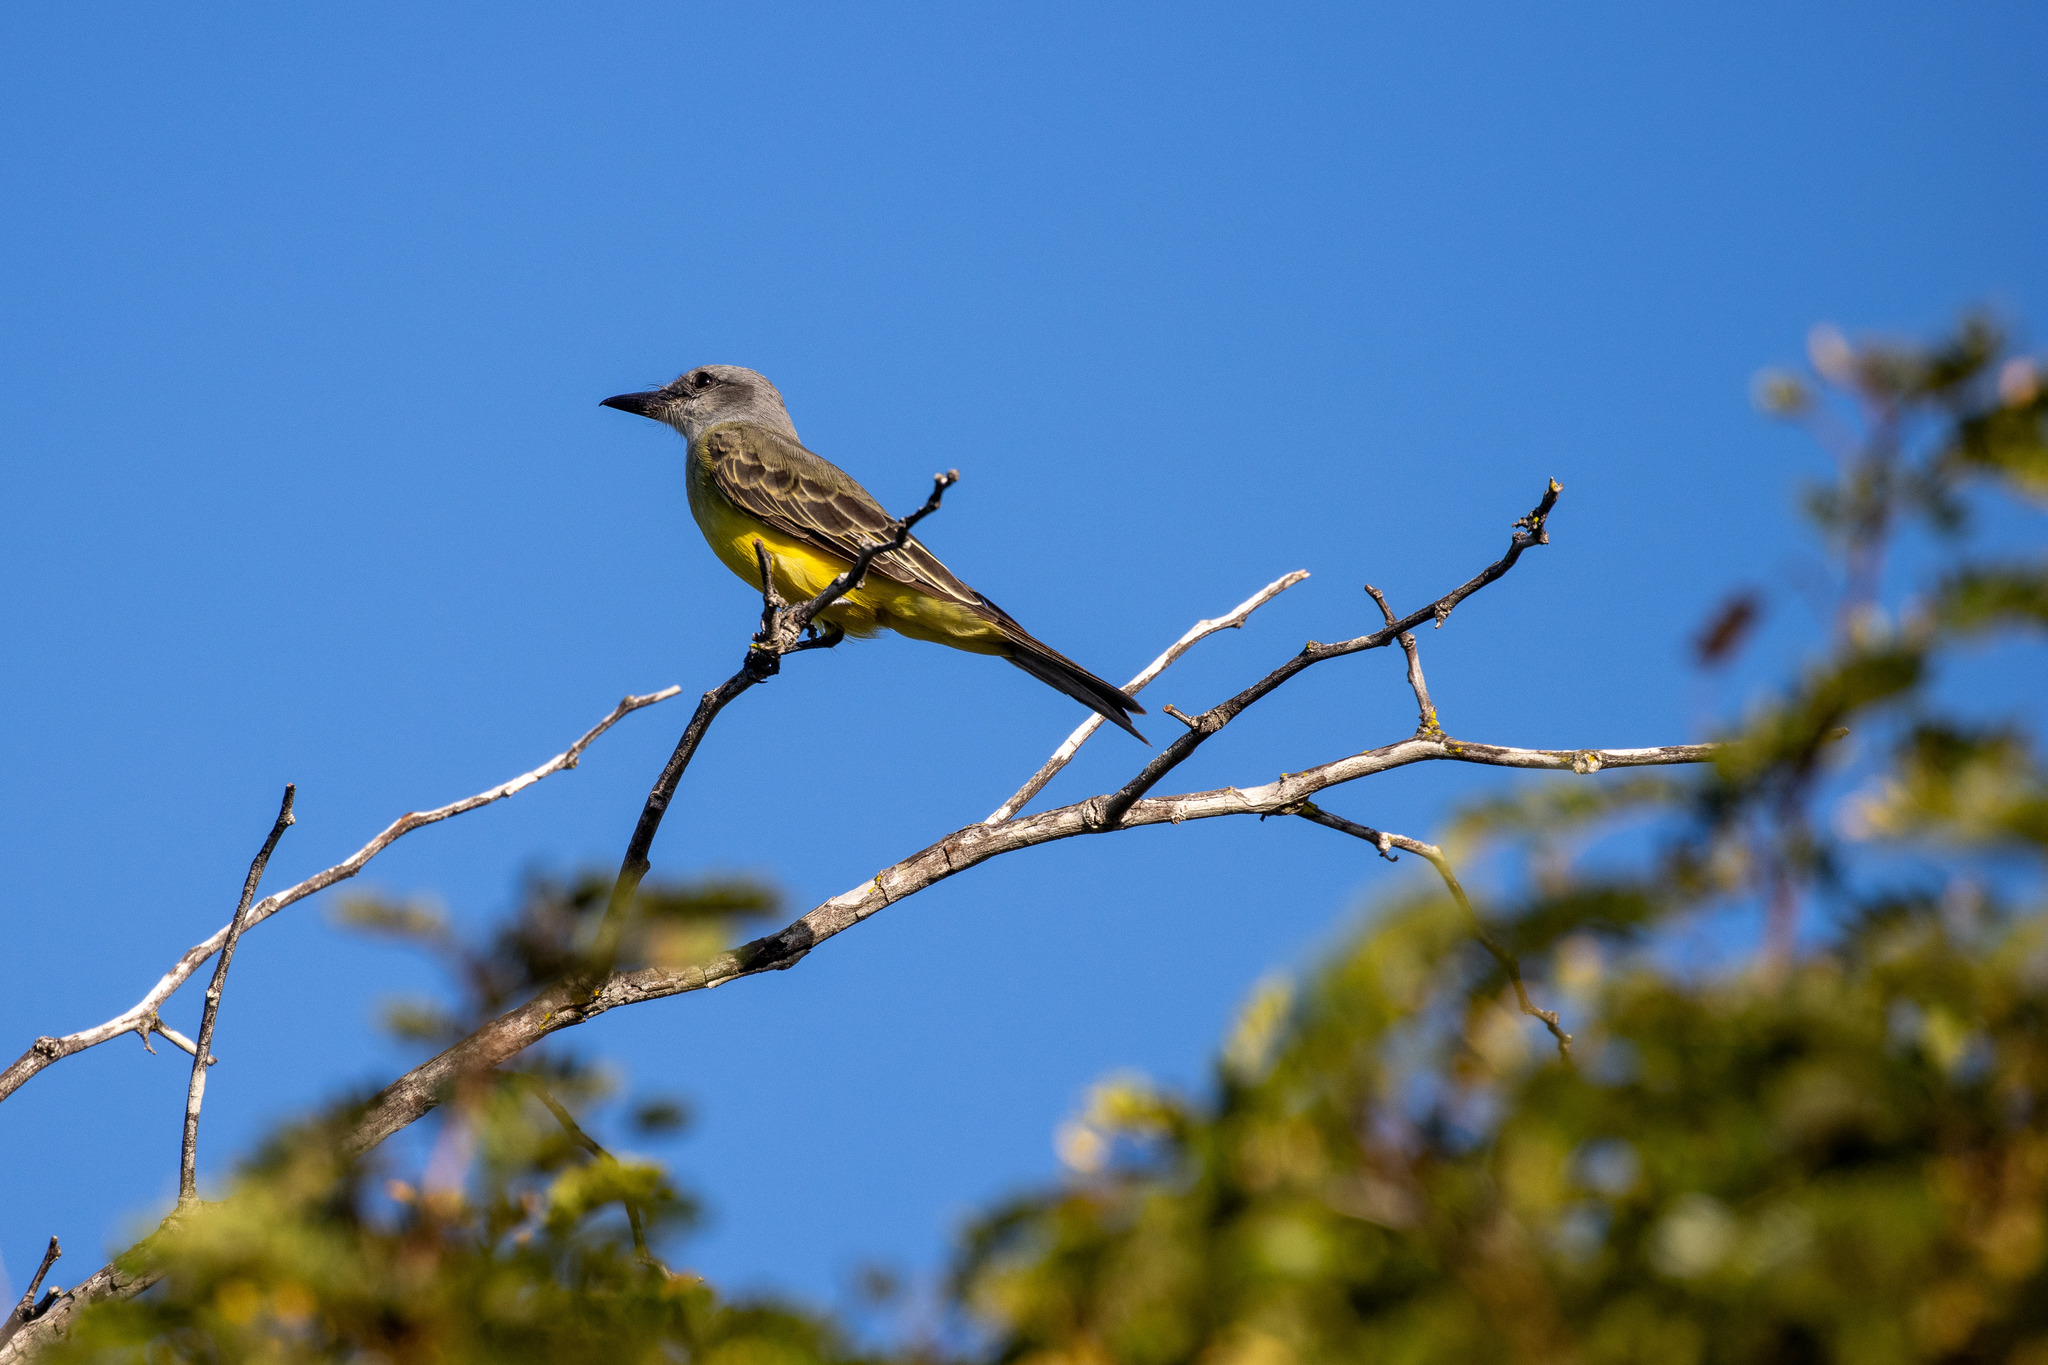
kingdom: Animalia
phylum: Chordata
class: Aves
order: Passeriformes
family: Tyrannidae
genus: Tyrannus
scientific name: Tyrannus melancholicus
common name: Tropical kingbird
